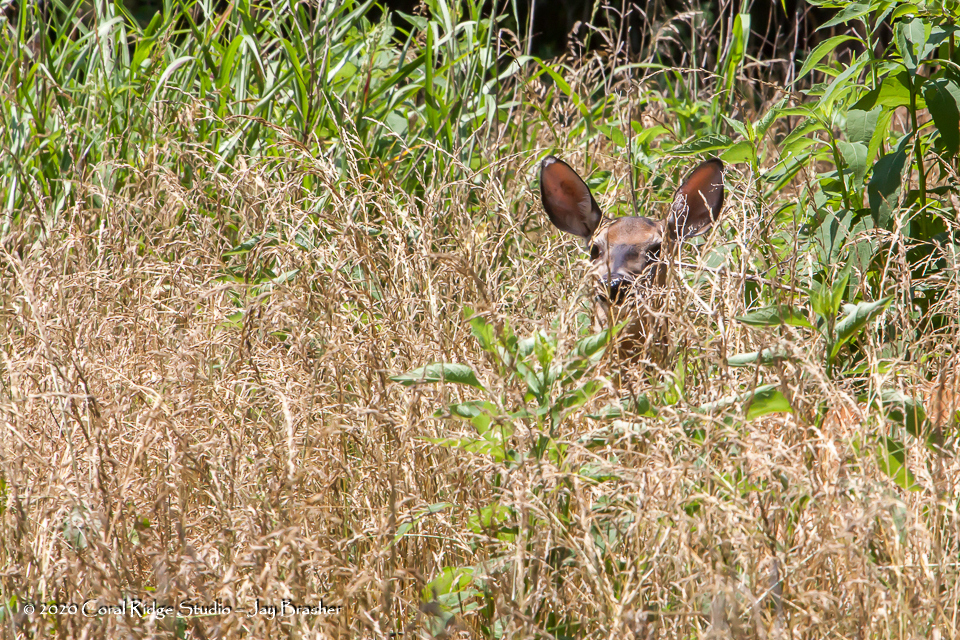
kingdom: Animalia
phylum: Chordata
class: Mammalia
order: Artiodactyla
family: Cervidae
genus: Odocoileus
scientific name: Odocoileus virginianus
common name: White-tailed deer
